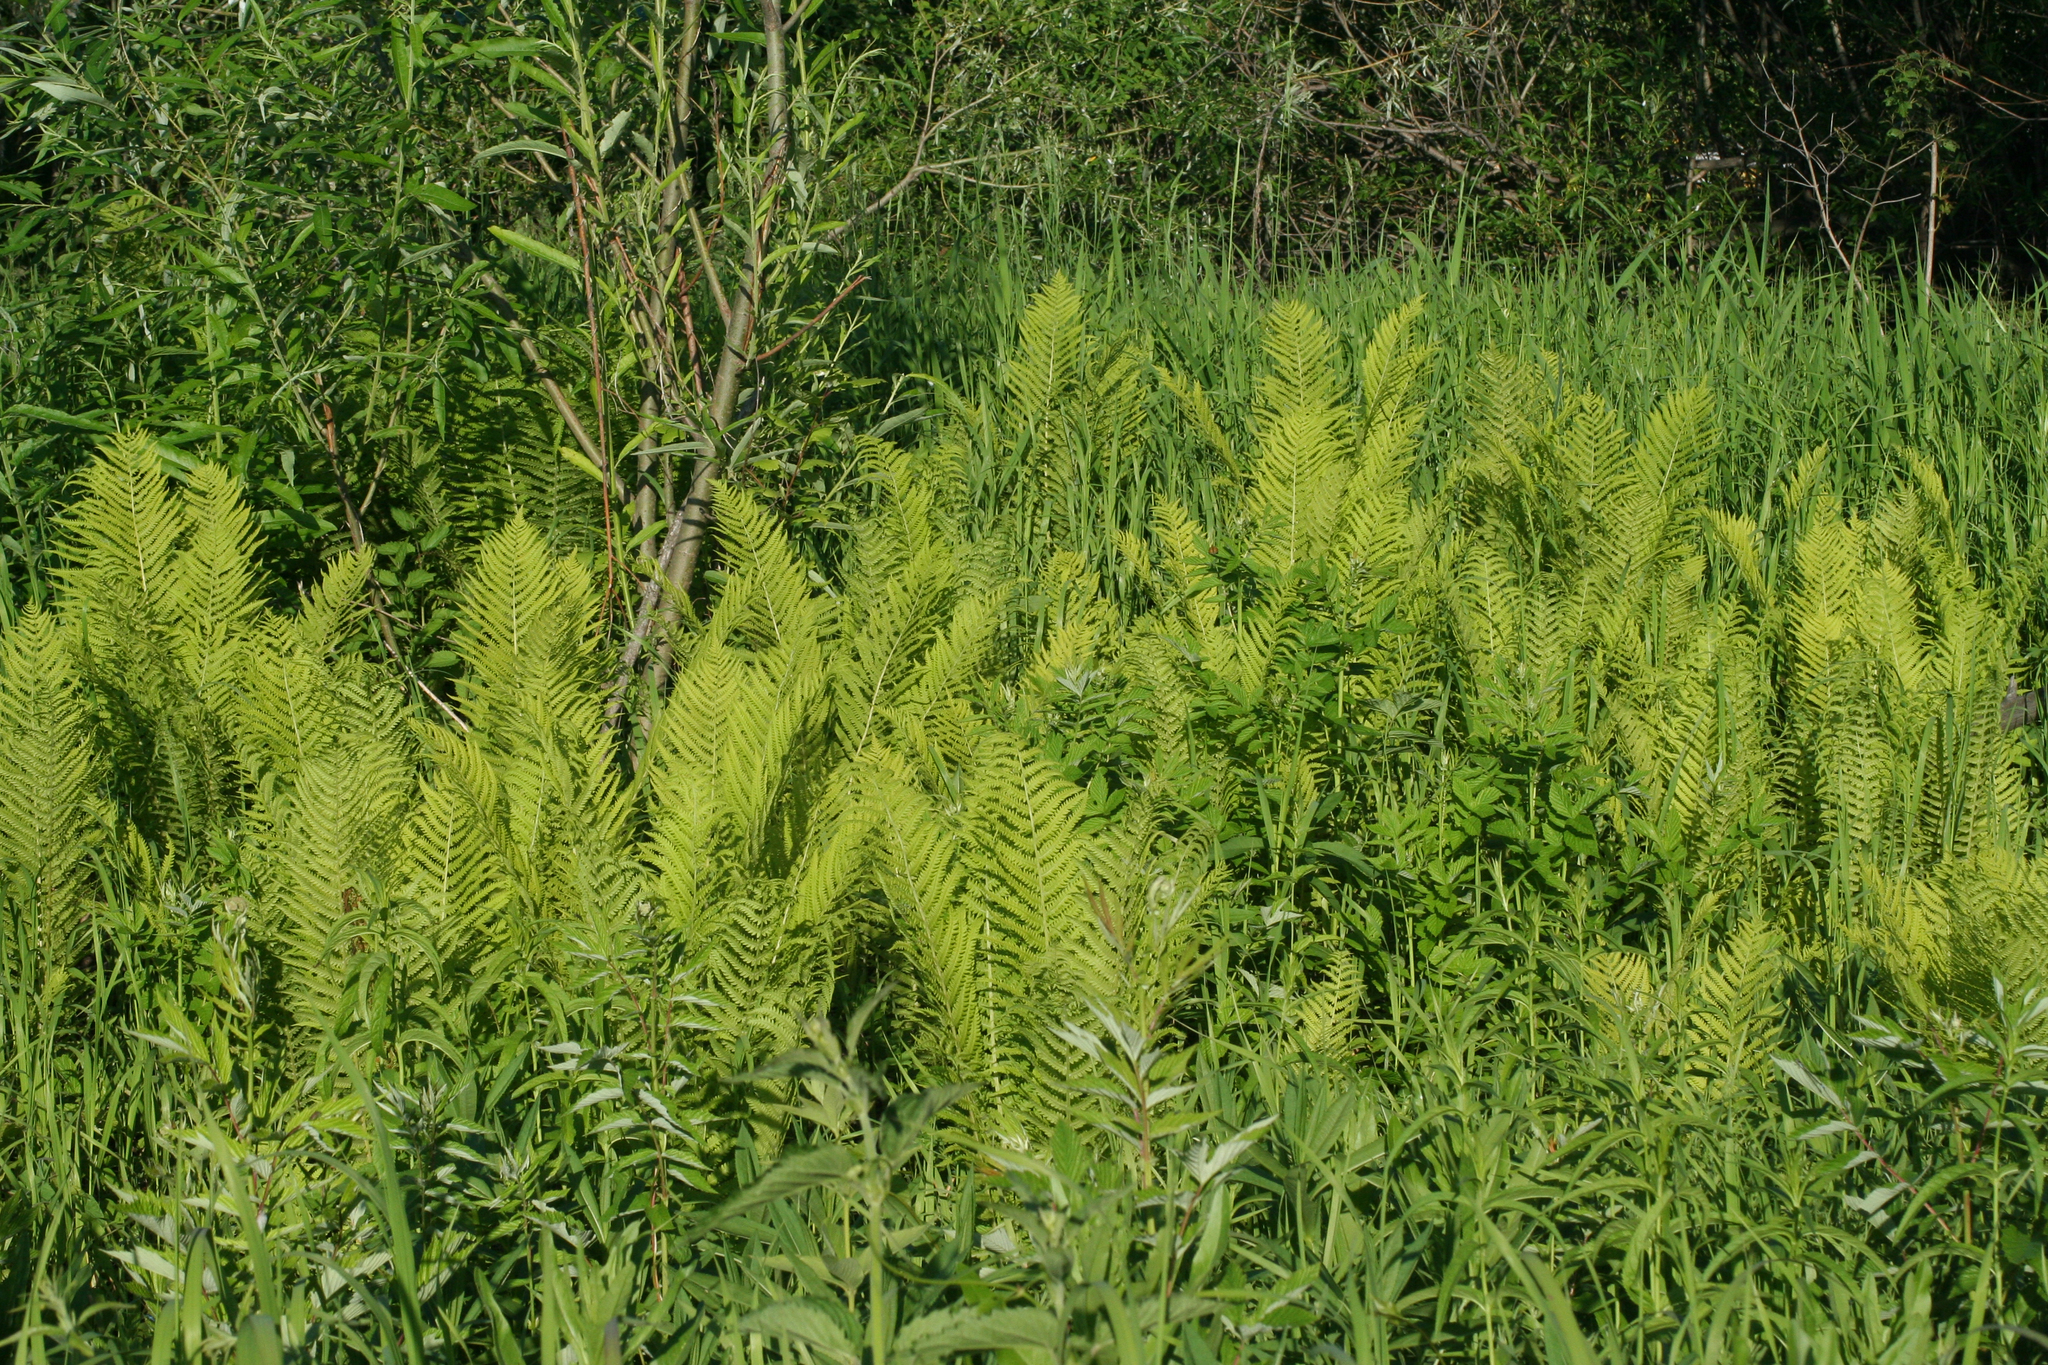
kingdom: Plantae
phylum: Tracheophyta
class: Polypodiopsida
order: Polypodiales
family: Onocleaceae
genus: Matteuccia
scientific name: Matteuccia struthiopteris
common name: Ostrich fern
